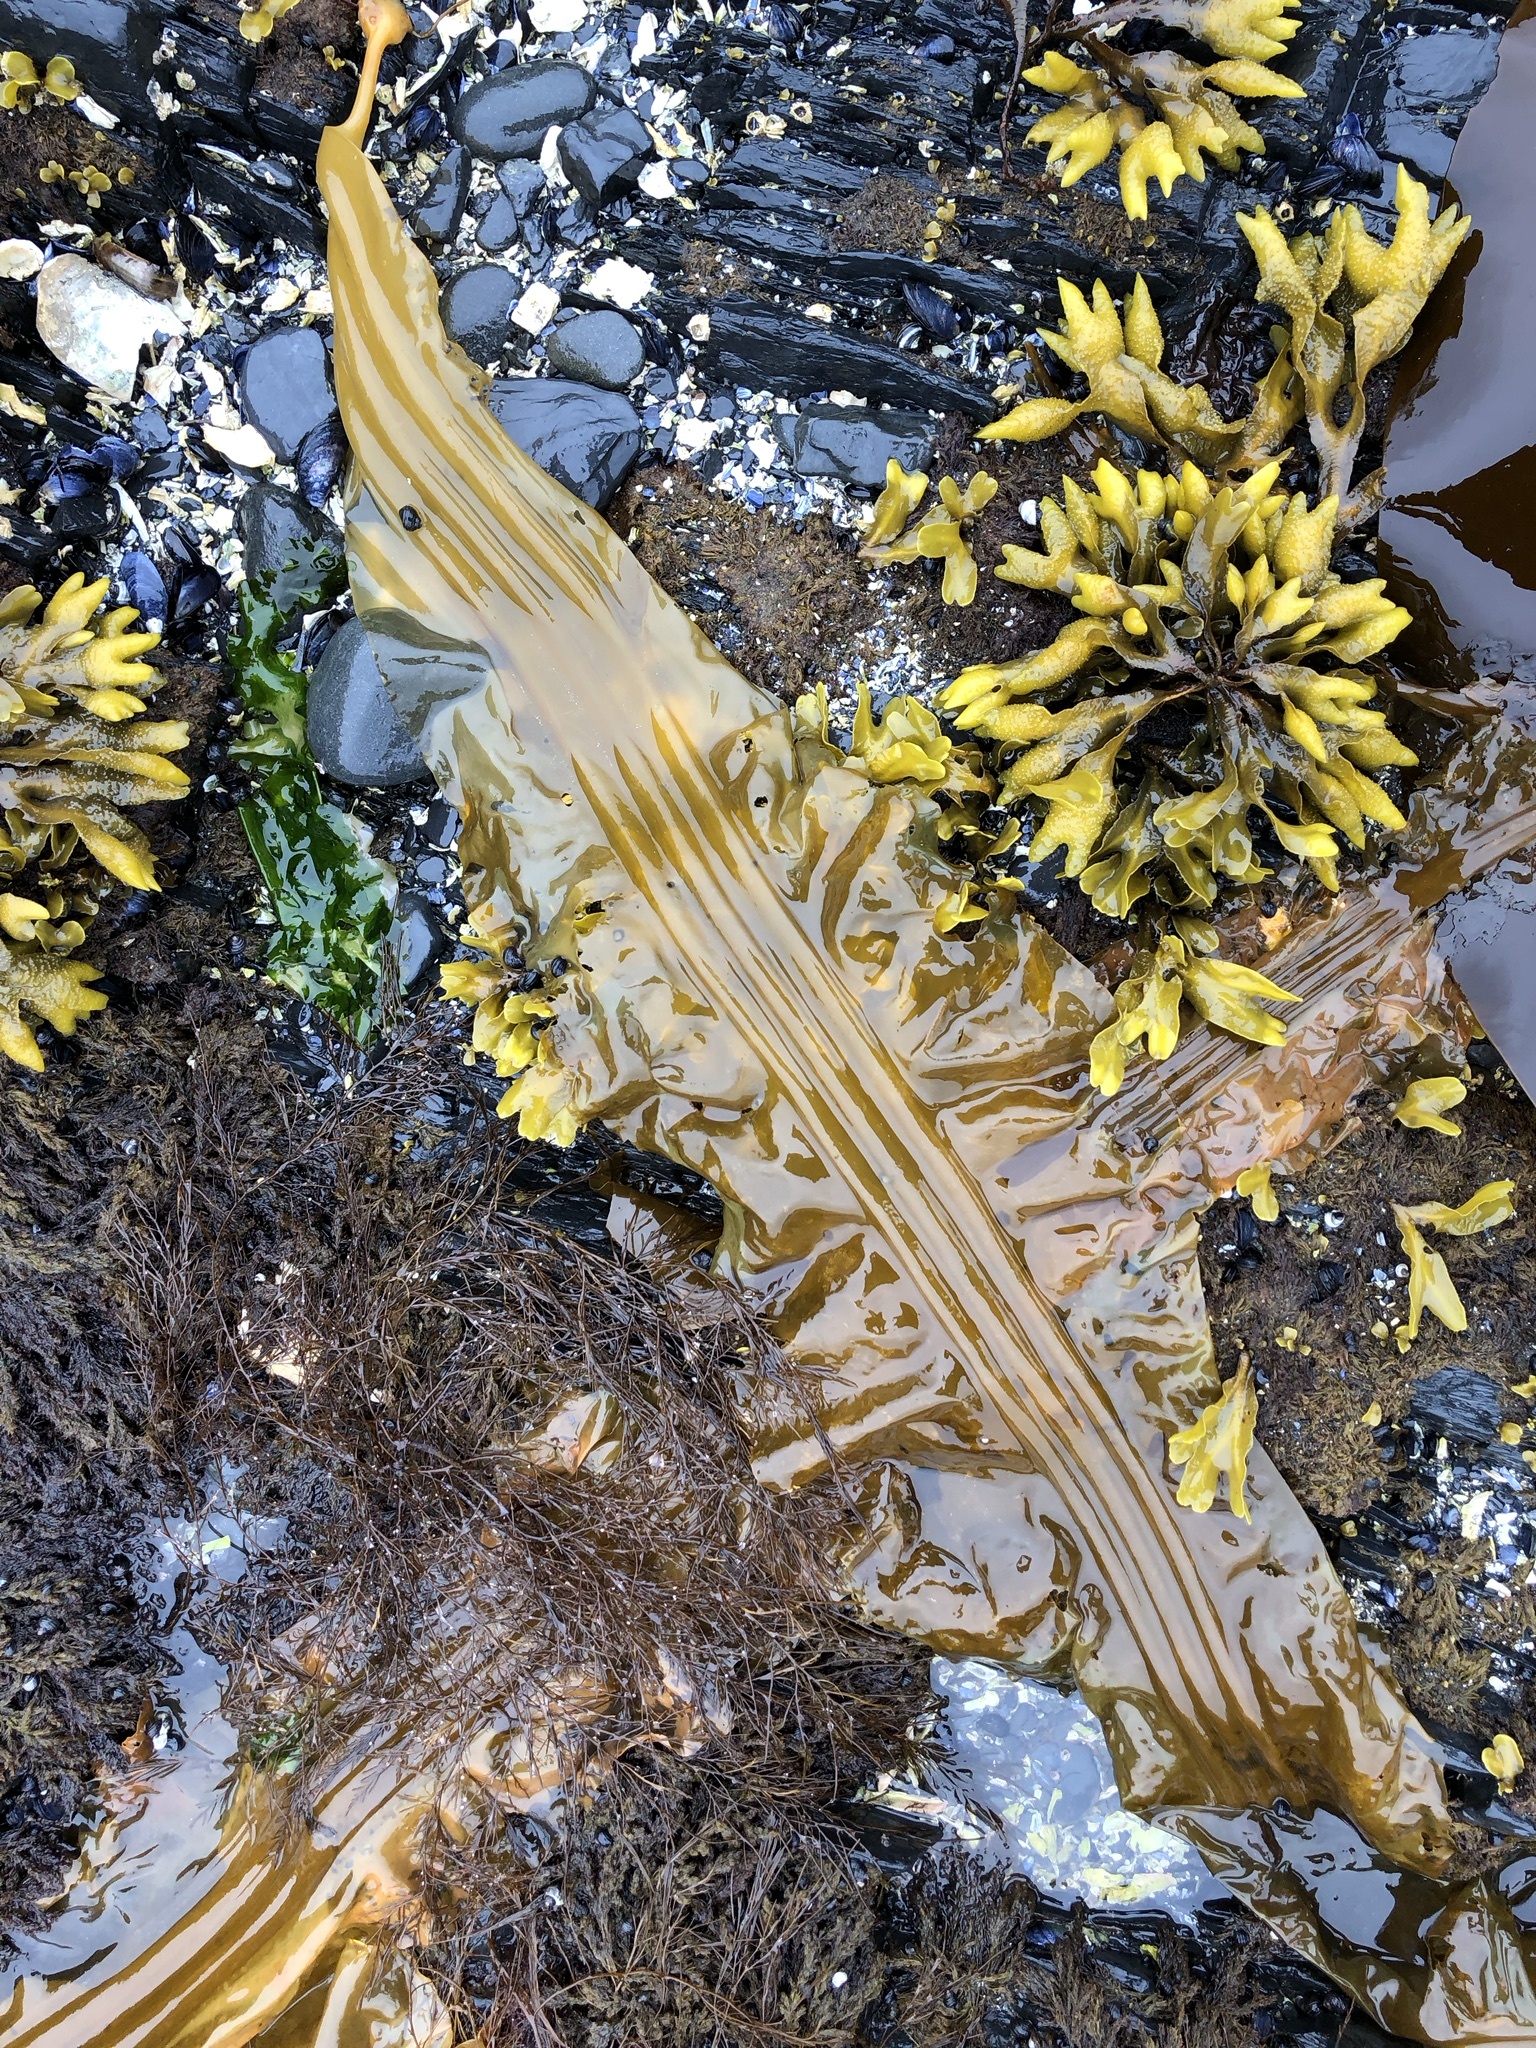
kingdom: Chromista
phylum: Ochrophyta
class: Phaeophyceae
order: Laminariales
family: Laminariaceae
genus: Cymathaere
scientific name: Cymathaere triplicata
